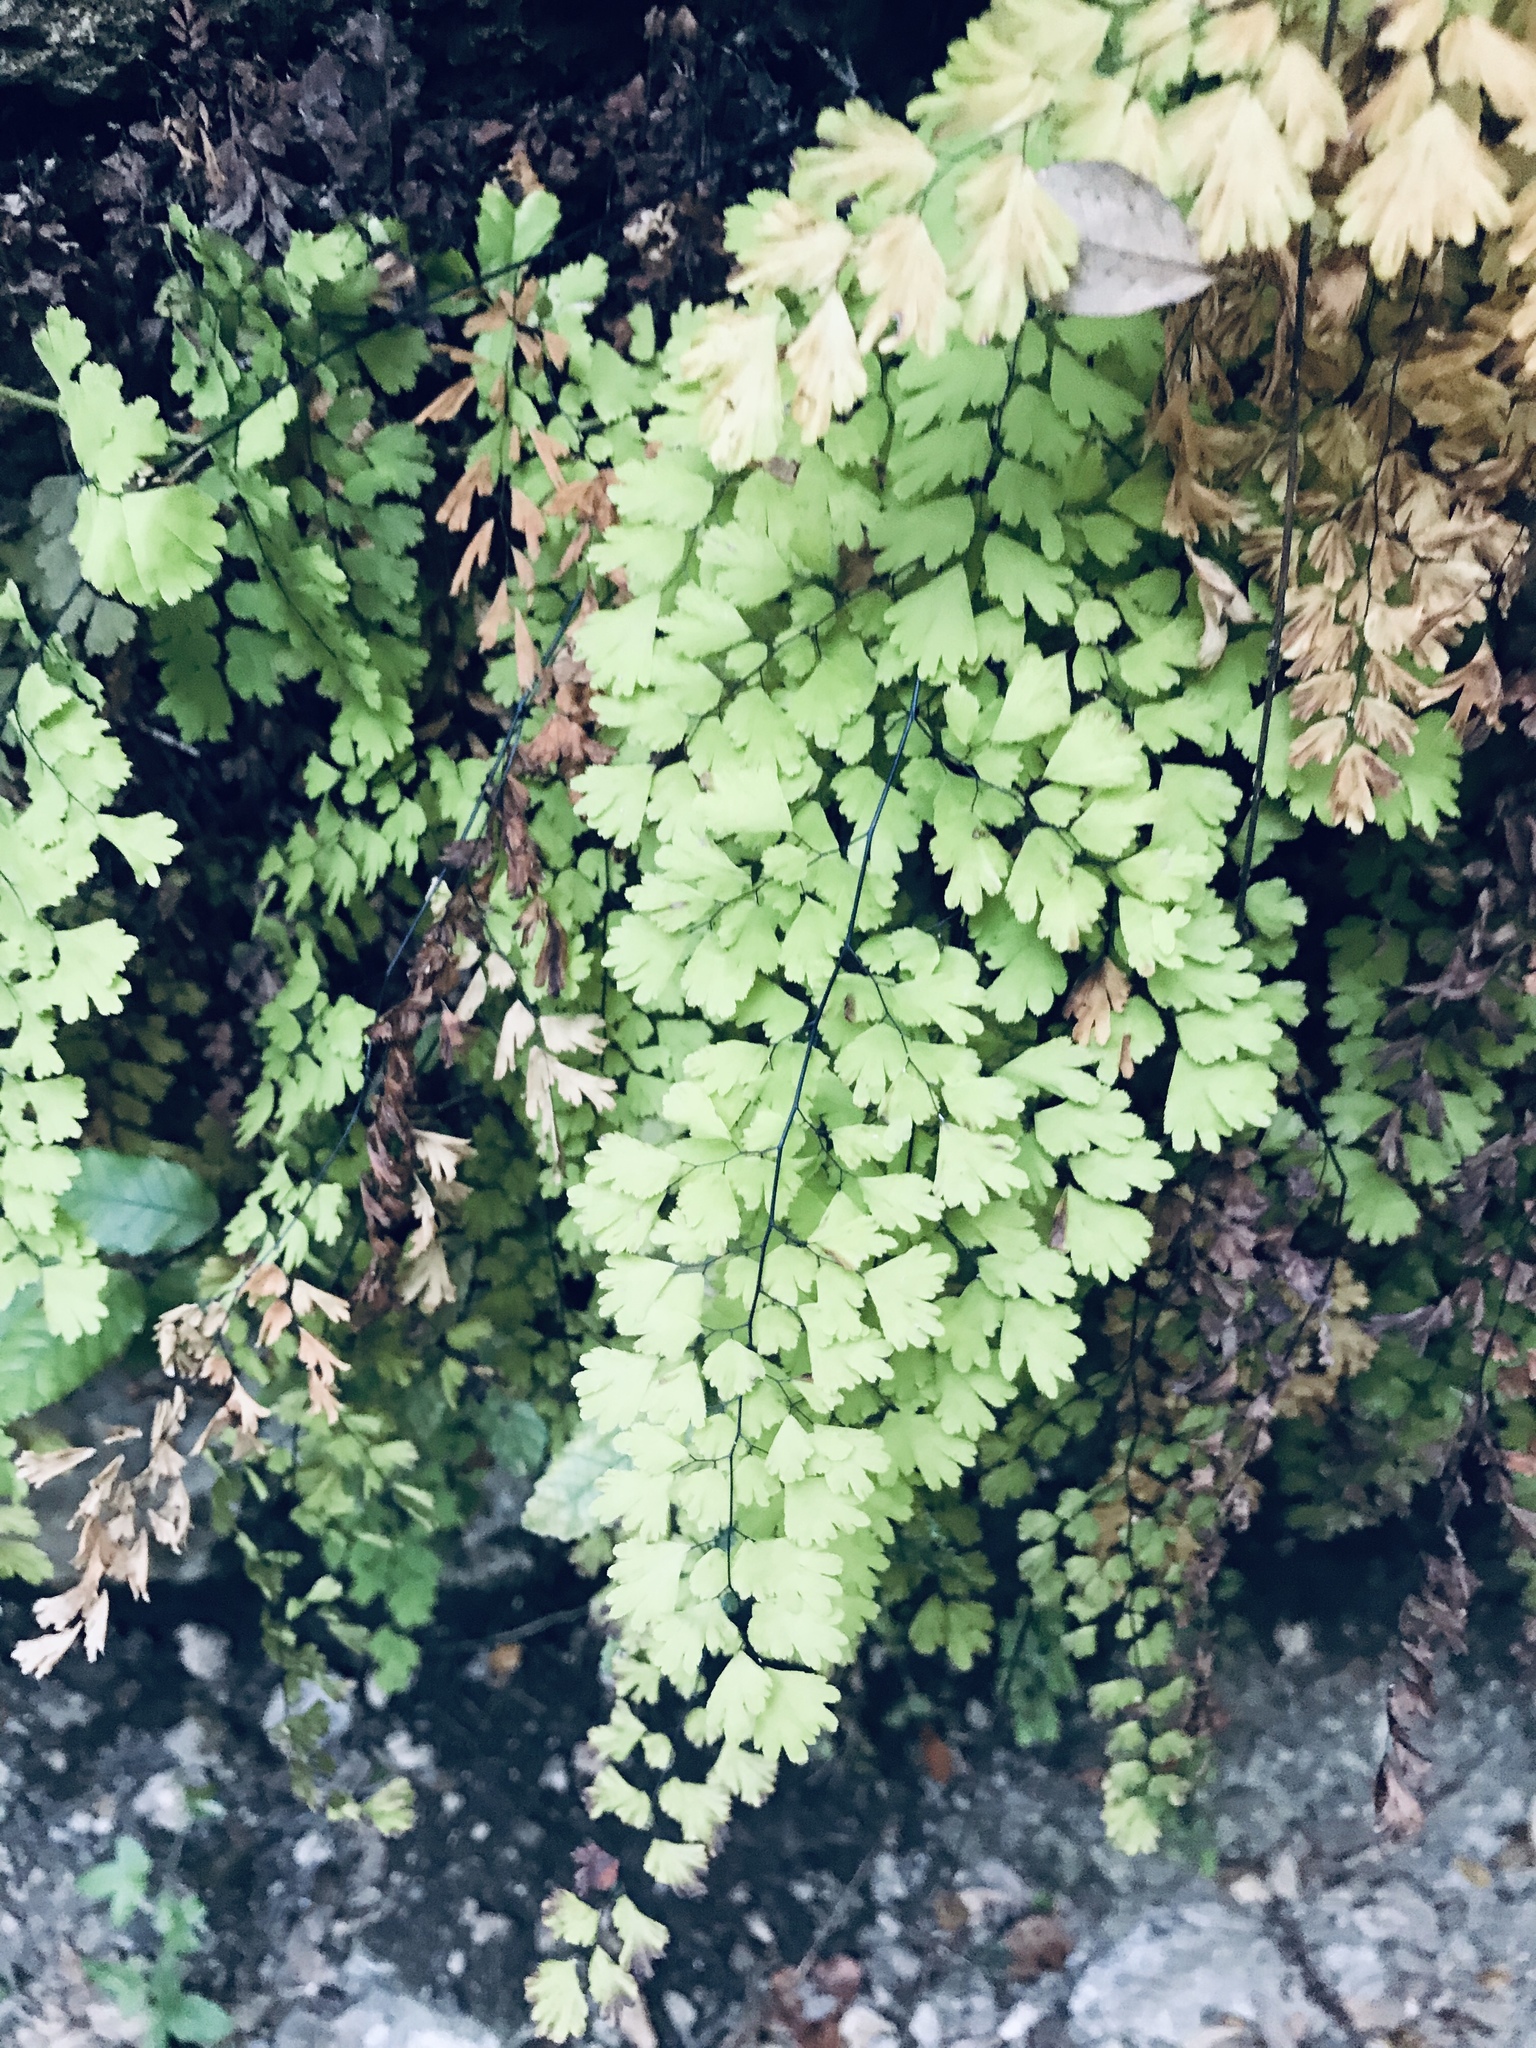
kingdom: Plantae
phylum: Tracheophyta
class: Polypodiopsida
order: Polypodiales
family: Pteridaceae
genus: Adiantum
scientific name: Adiantum capillus-veneris
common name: Maidenhair fern
